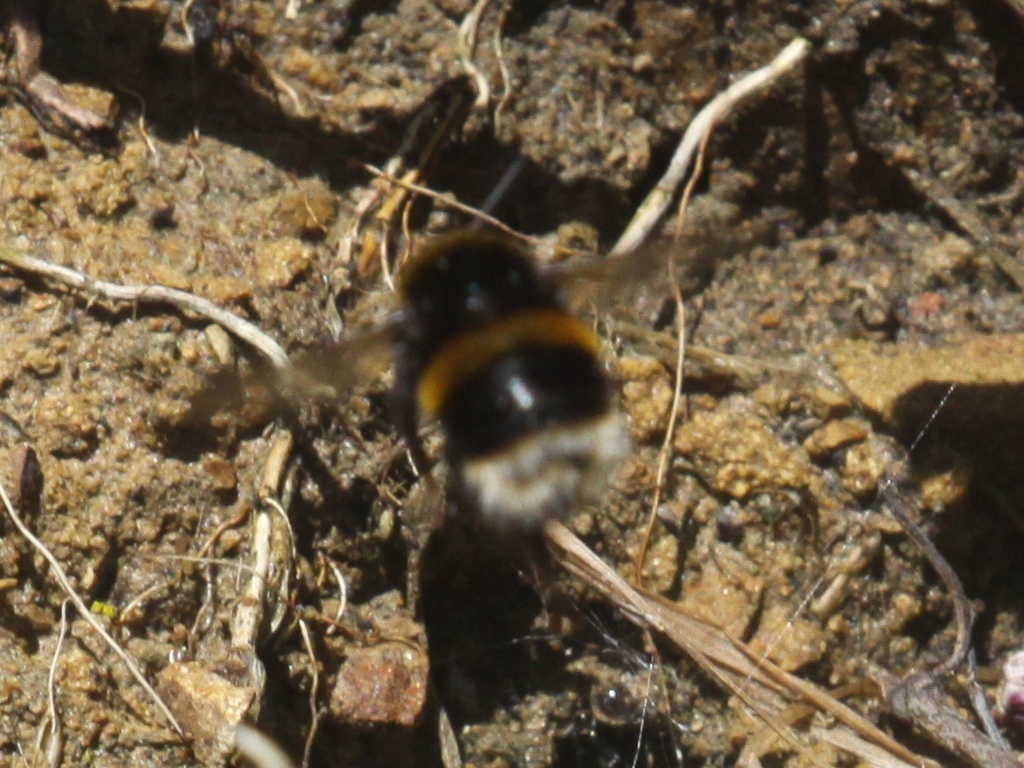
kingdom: Animalia
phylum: Arthropoda
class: Insecta
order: Hymenoptera
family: Apidae
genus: Bombus
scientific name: Bombus terrestris
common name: Buff-tailed bumblebee
